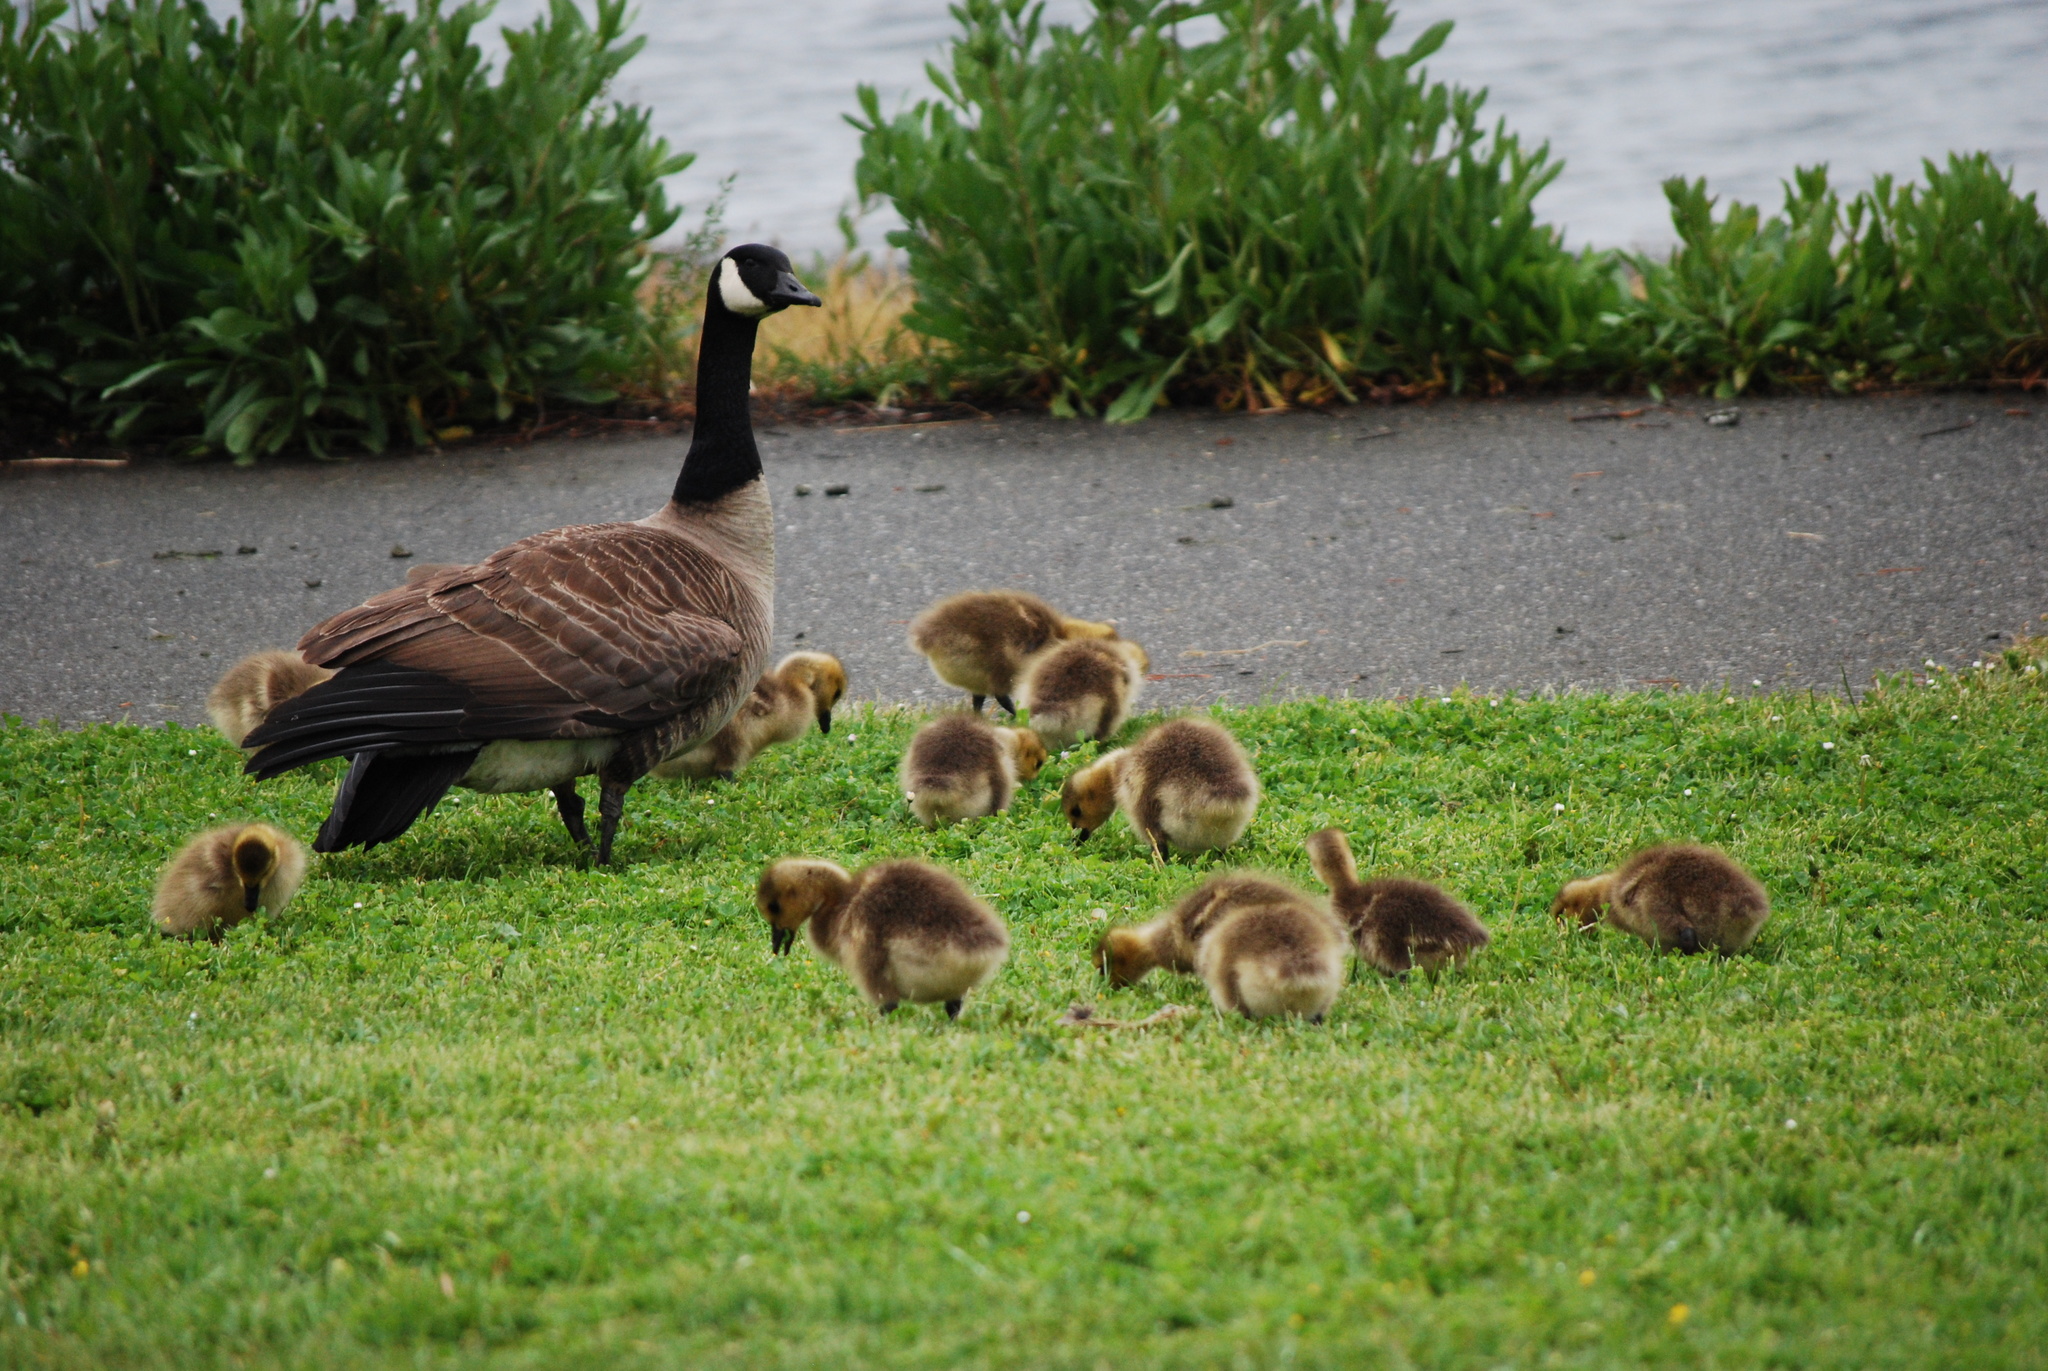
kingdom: Animalia
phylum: Chordata
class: Aves
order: Anseriformes
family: Anatidae
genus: Branta
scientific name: Branta canadensis
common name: Canada goose
